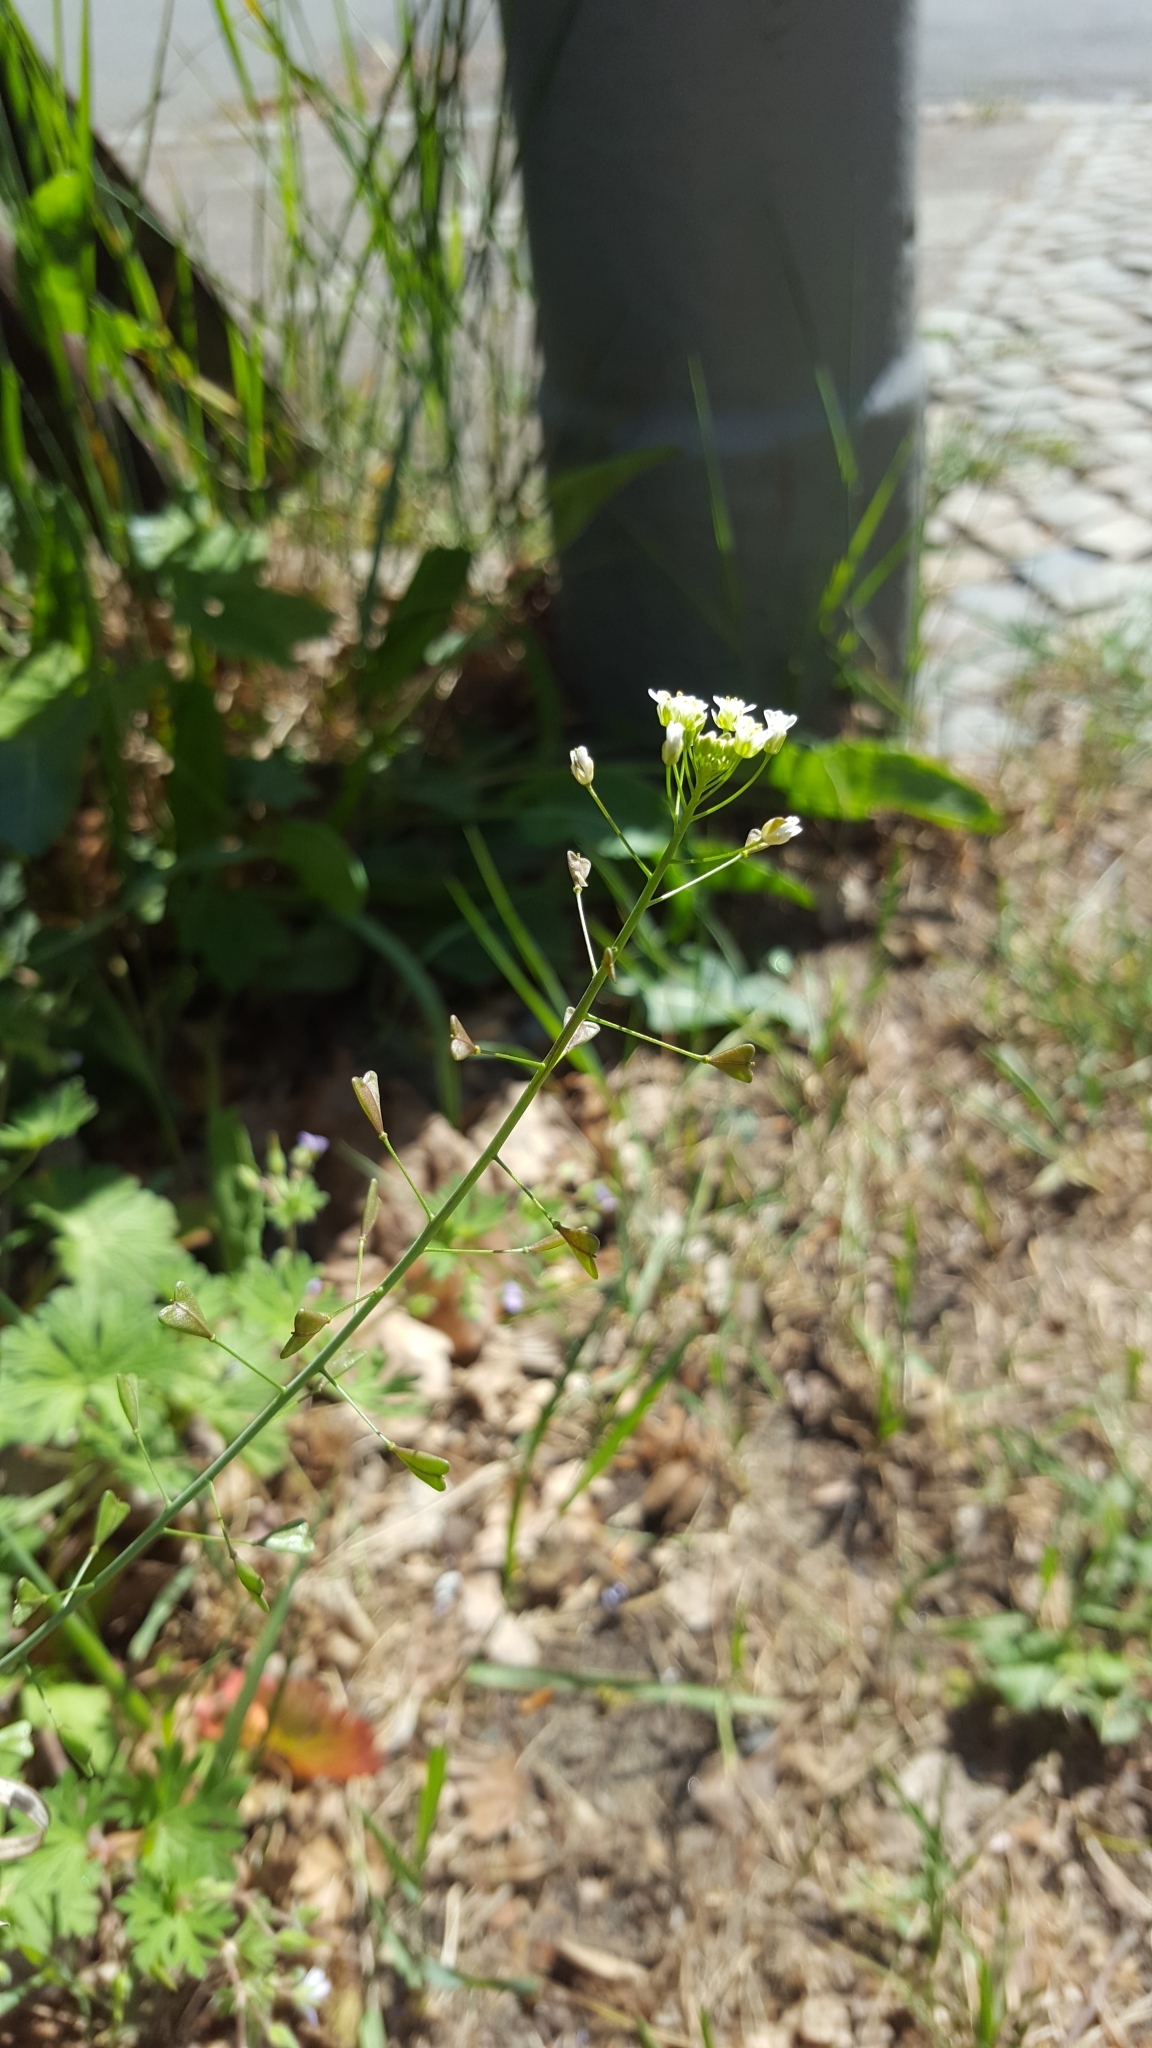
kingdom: Plantae
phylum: Tracheophyta
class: Magnoliopsida
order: Brassicales
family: Brassicaceae
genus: Capsella
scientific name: Capsella bursa-pastoris
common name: Shepherd's purse
